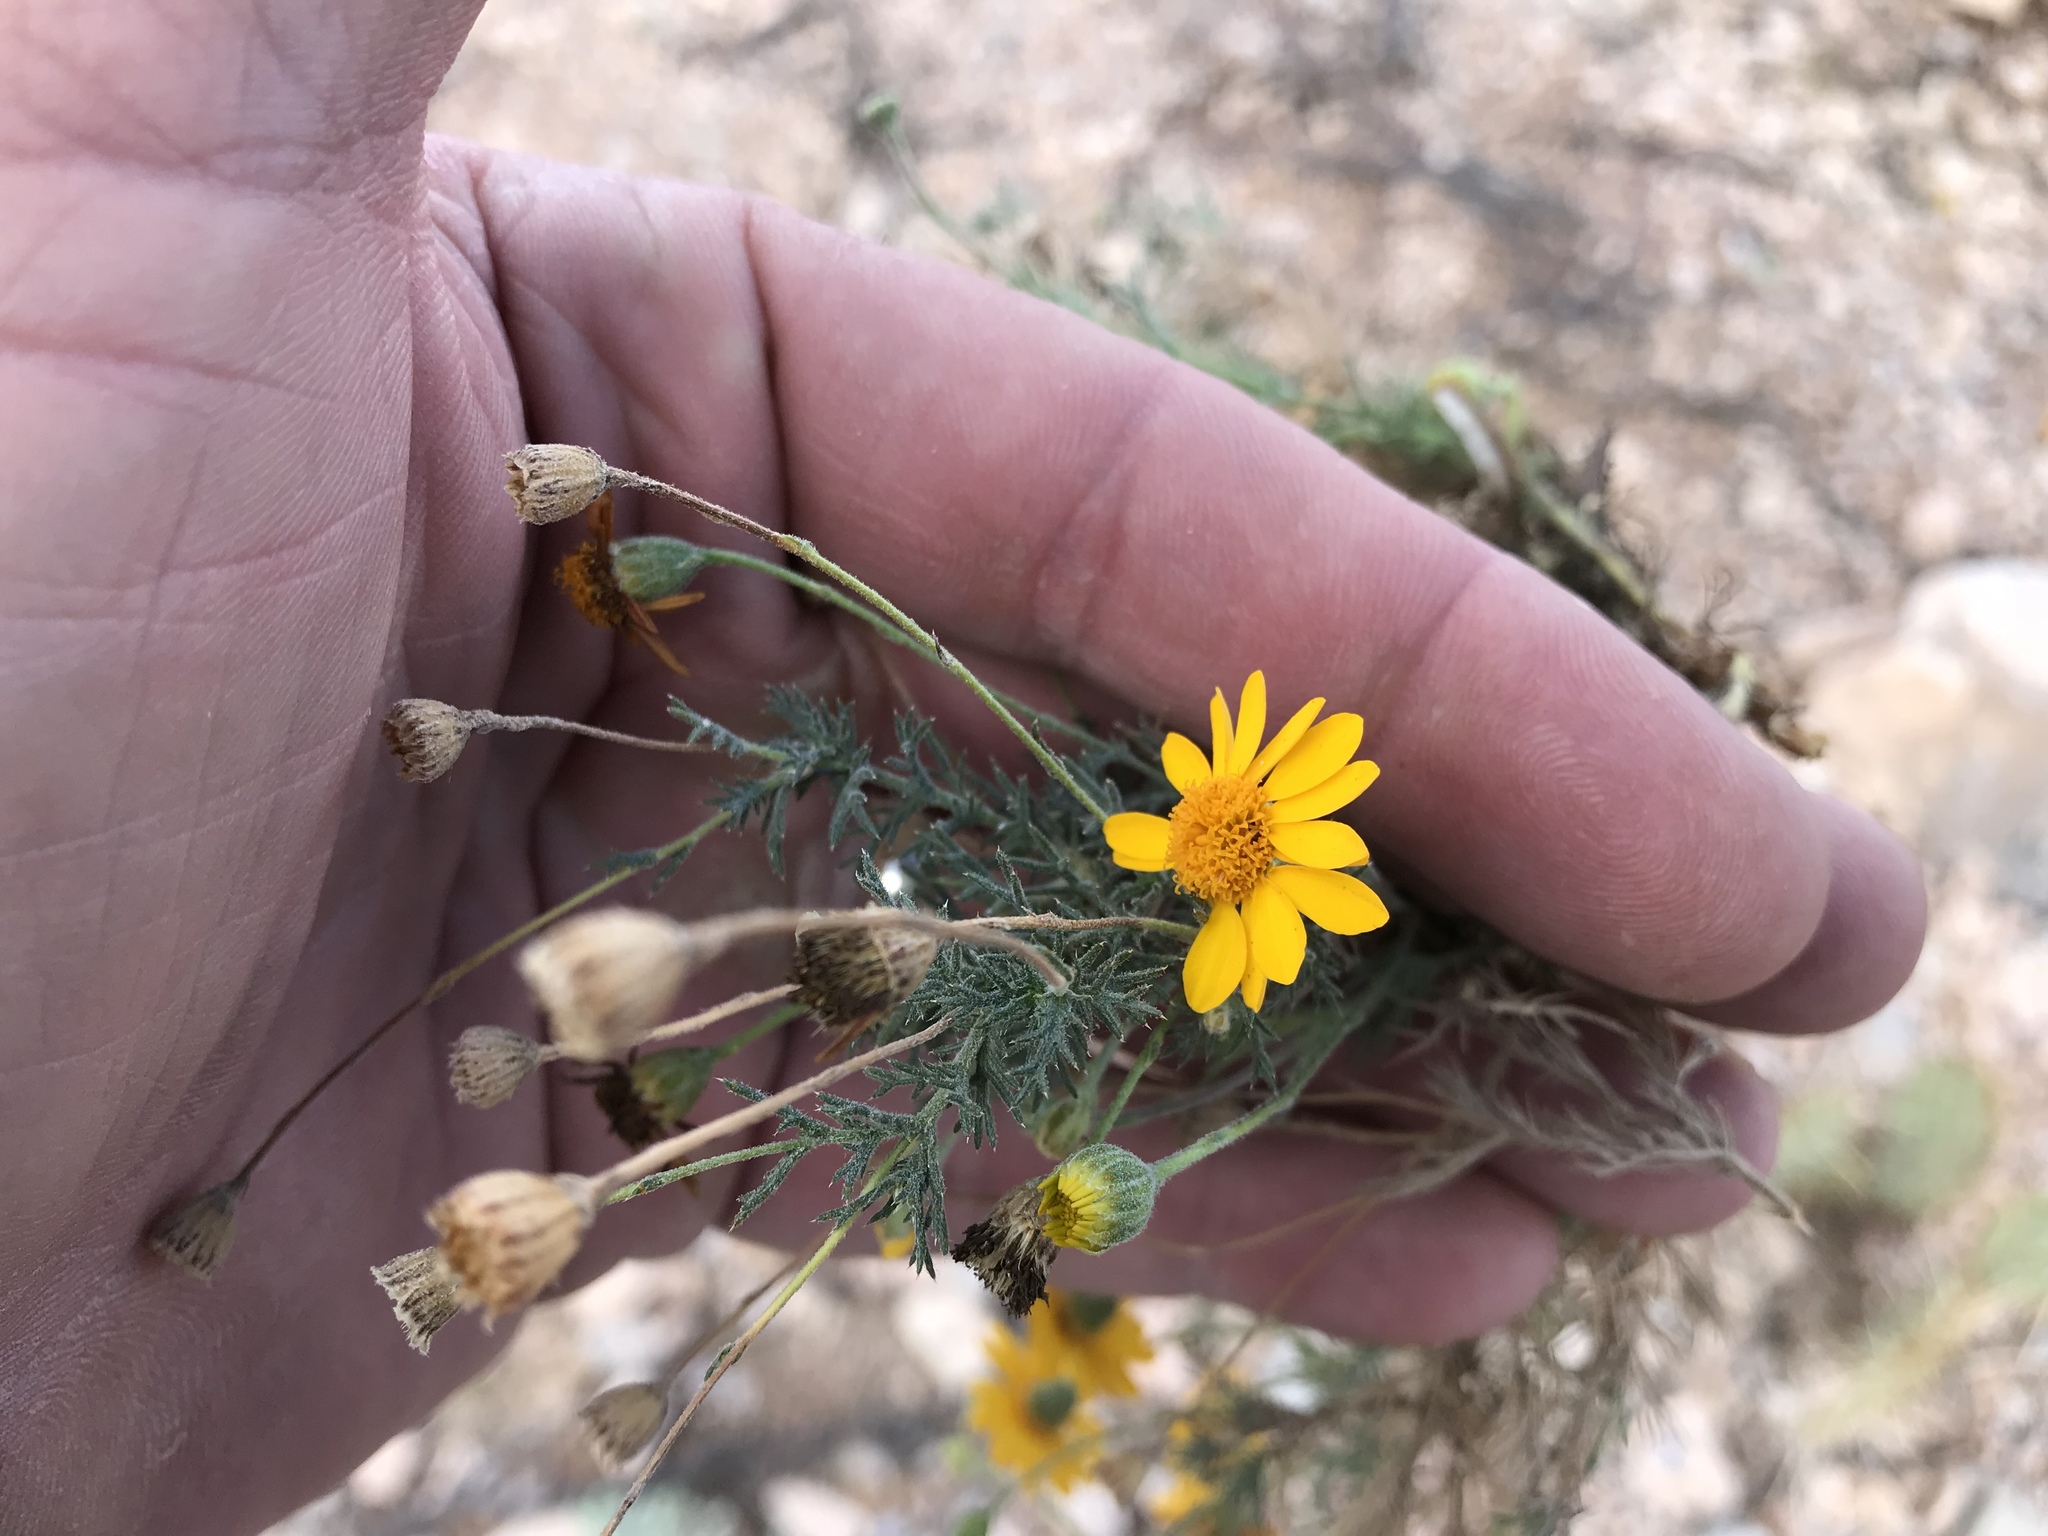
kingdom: Plantae
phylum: Tracheophyta
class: Magnoliopsida
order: Asterales
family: Asteraceae
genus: Thymophylla
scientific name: Thymophylla pentachaeta
